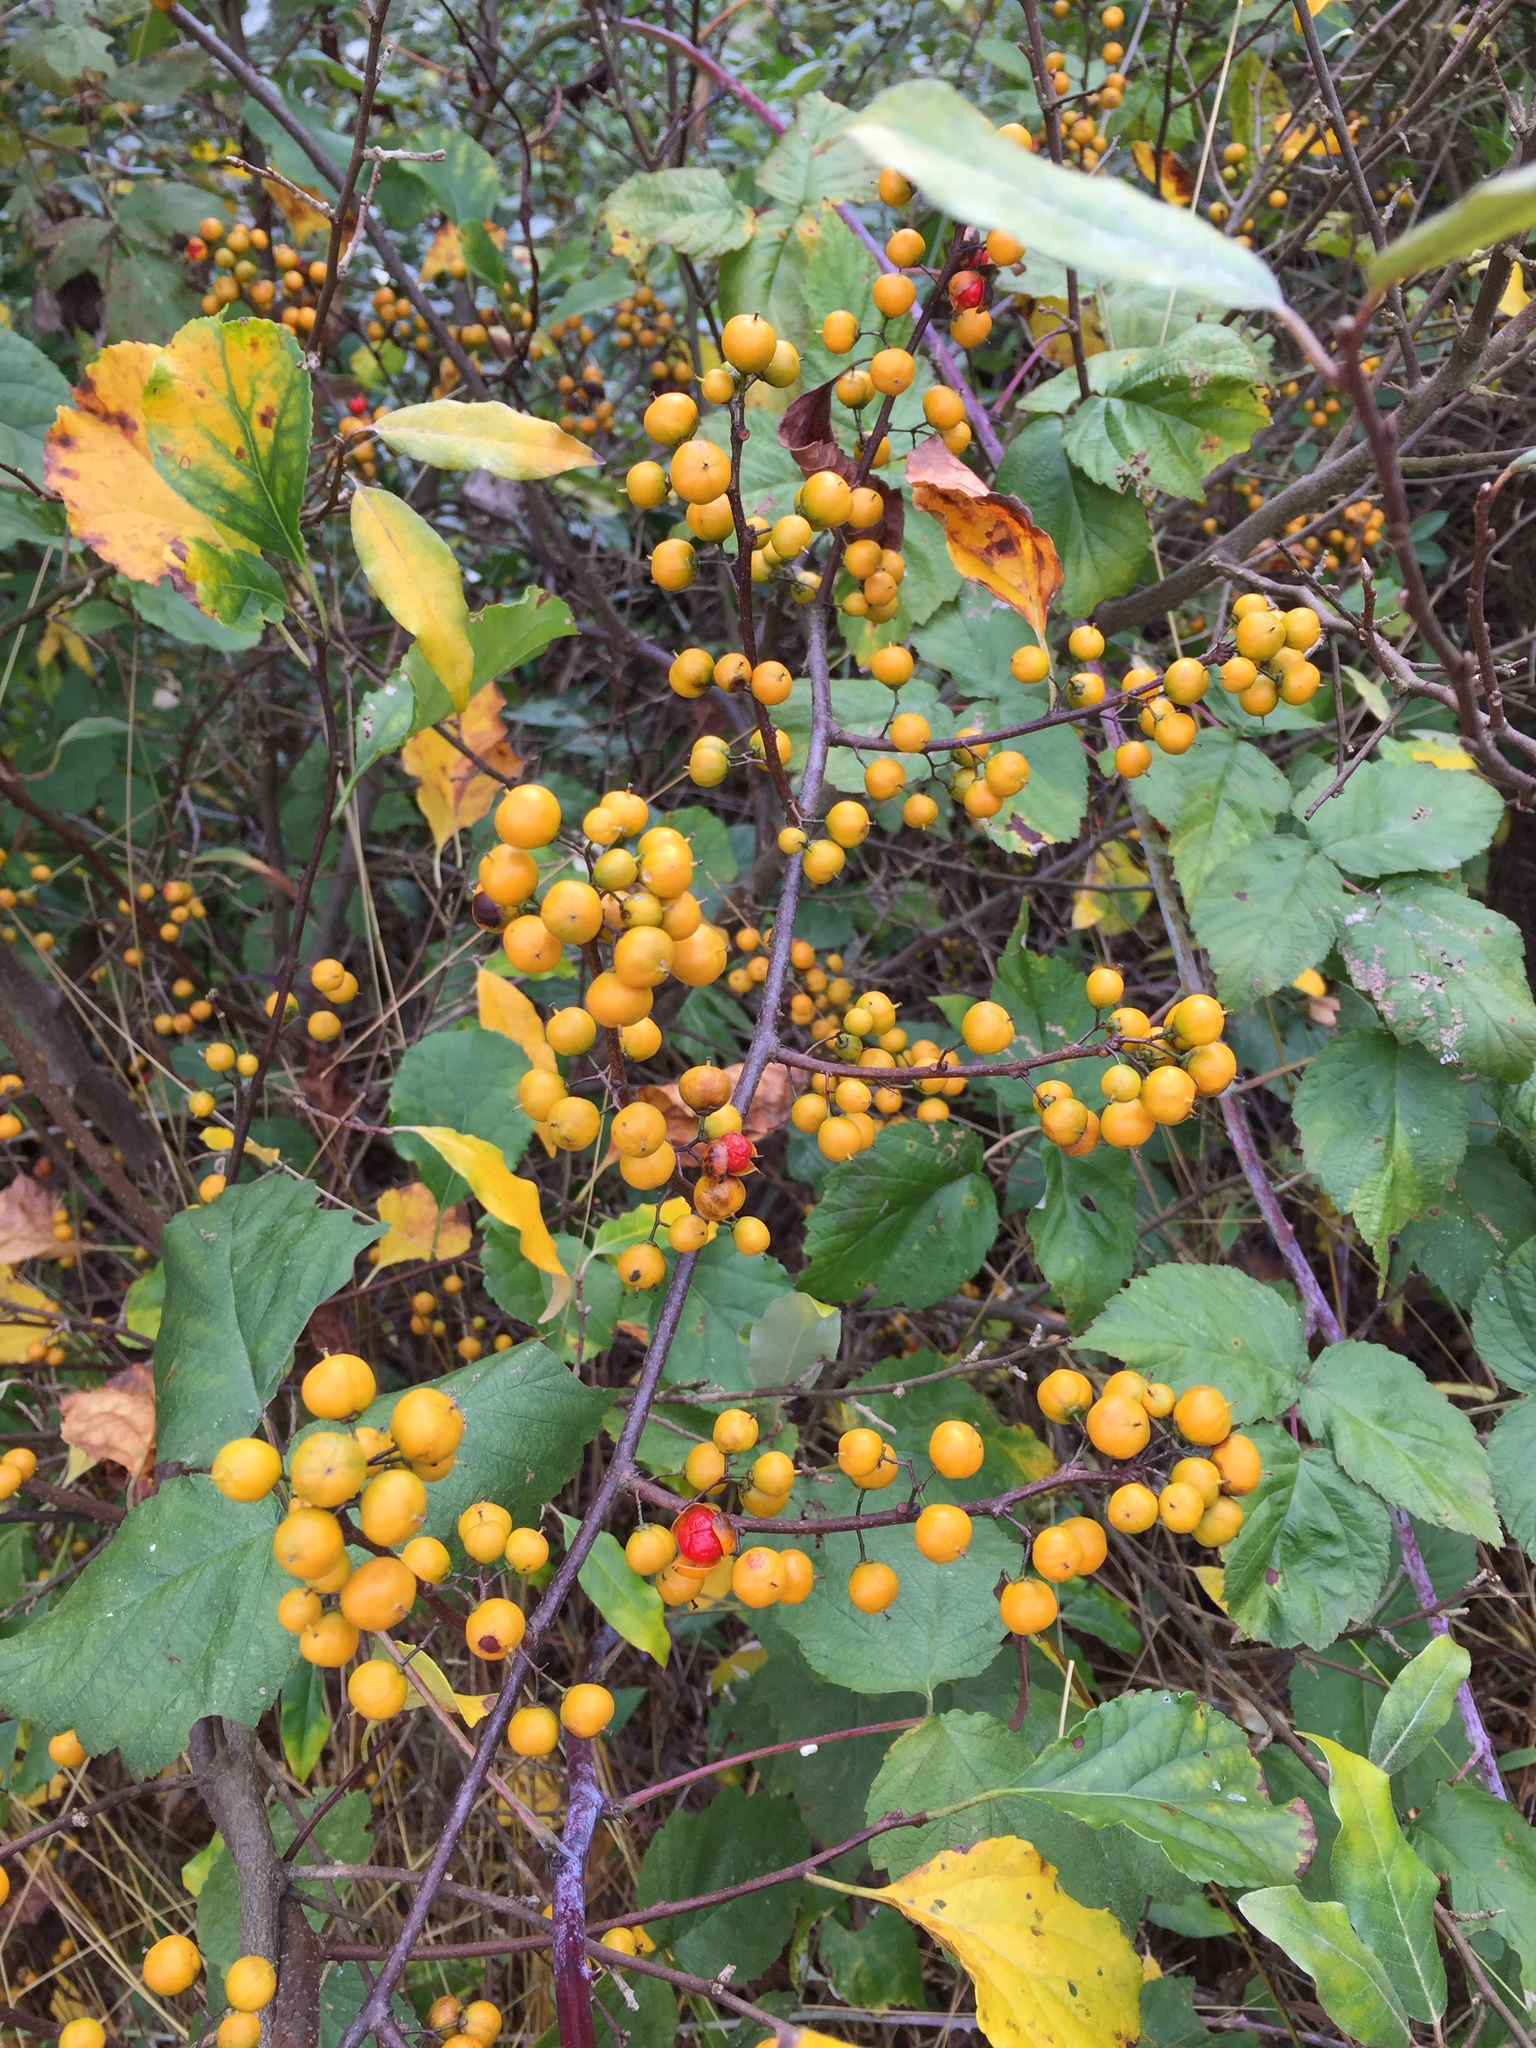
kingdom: Plantae
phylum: Tracheophyta
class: Magnoliopsida
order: Celastrales
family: Celastraceae
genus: Celastrus
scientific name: Celastrus orbiculatus
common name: Oriental bittersweet
